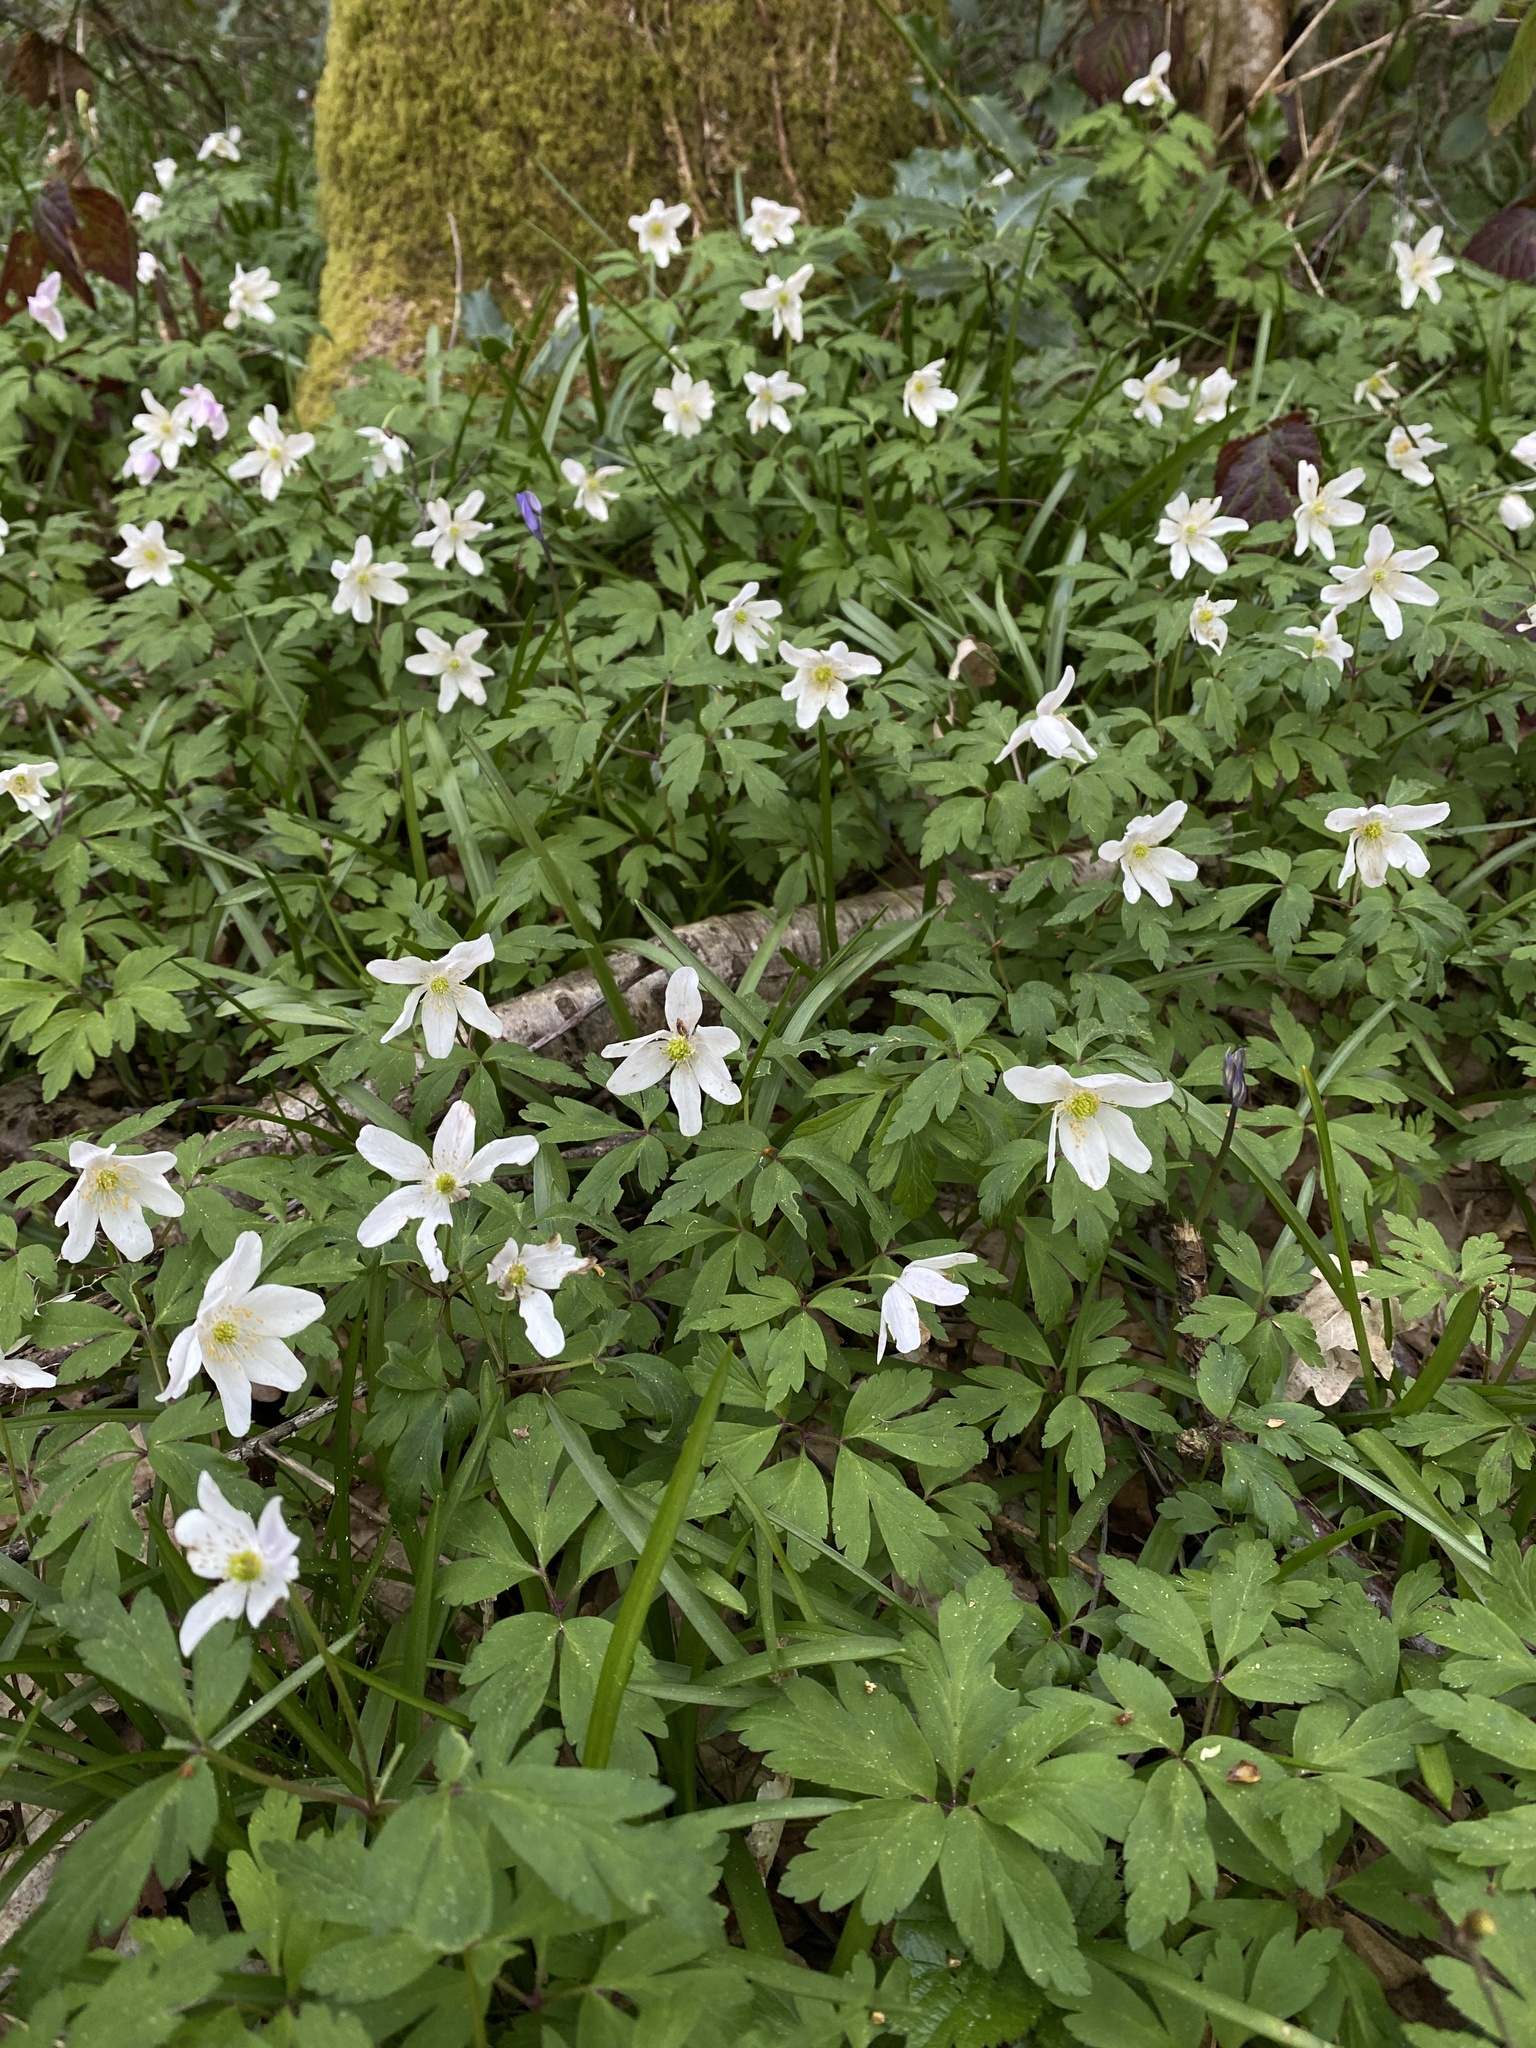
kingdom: Plantae
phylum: Tracheophyta
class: Magnoliopsida
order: Ranunculales
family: Ranunculaceae
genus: Anemone
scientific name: Anemone nemorosa
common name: Wood anemone
